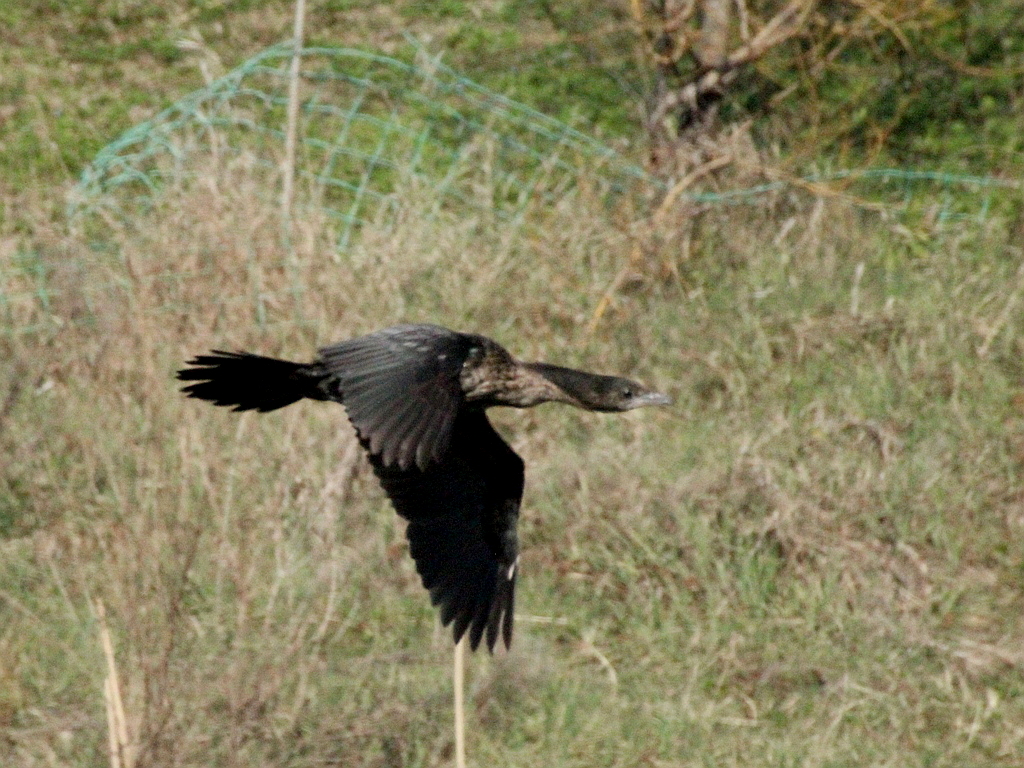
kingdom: Animalia
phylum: Chordata
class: Aves
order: Suliformes
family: Phalacrocoracidae
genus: Microcarbo
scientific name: Microcarbo pygmaeus
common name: Pygmy cormorant
